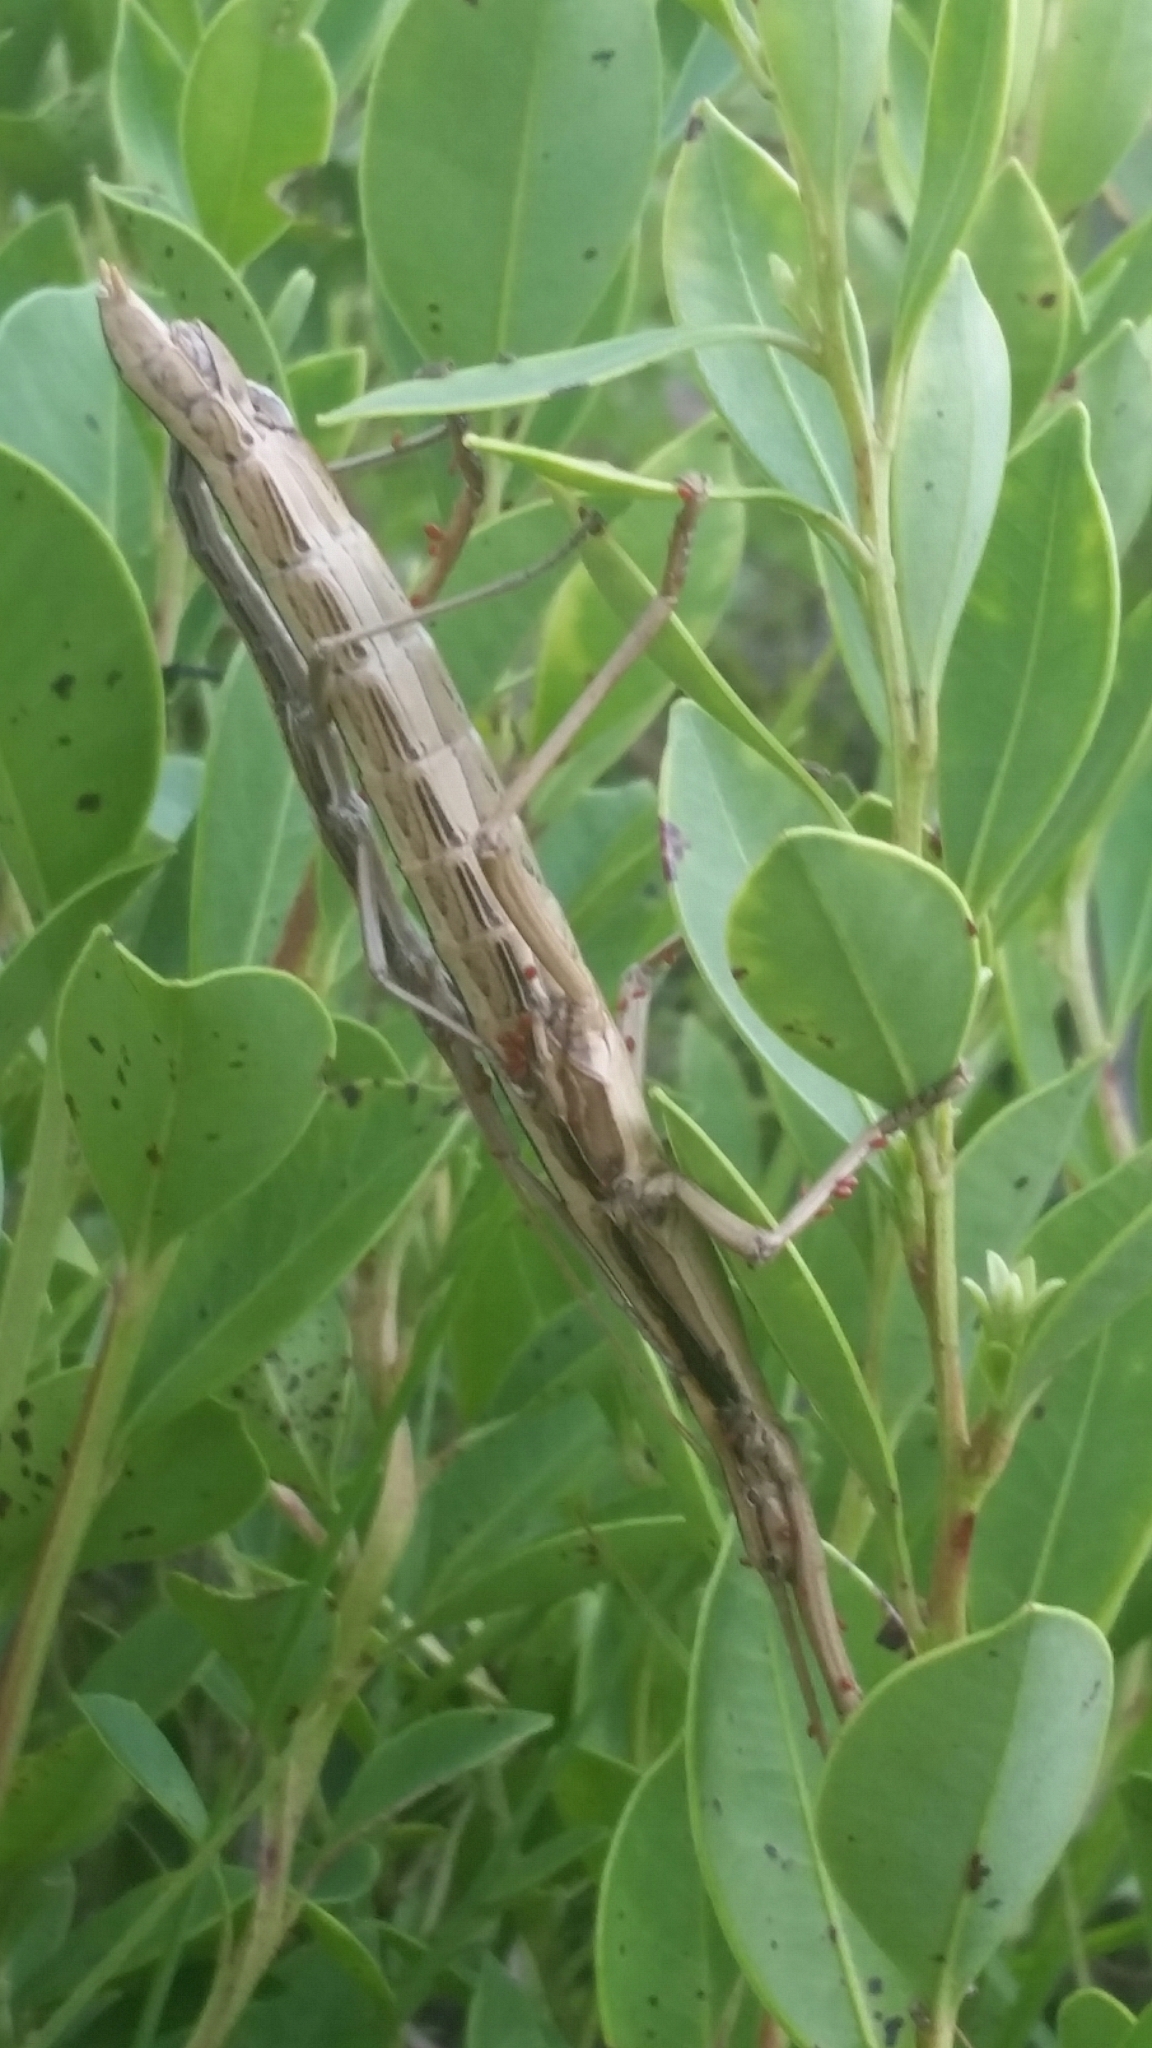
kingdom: Animalia
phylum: Arthropoda
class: Insecta
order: Phasmida
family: Pseudophasmatidae
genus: Anisomorpha
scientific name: Anisomorpha buprestoides
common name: Florida stick insect
